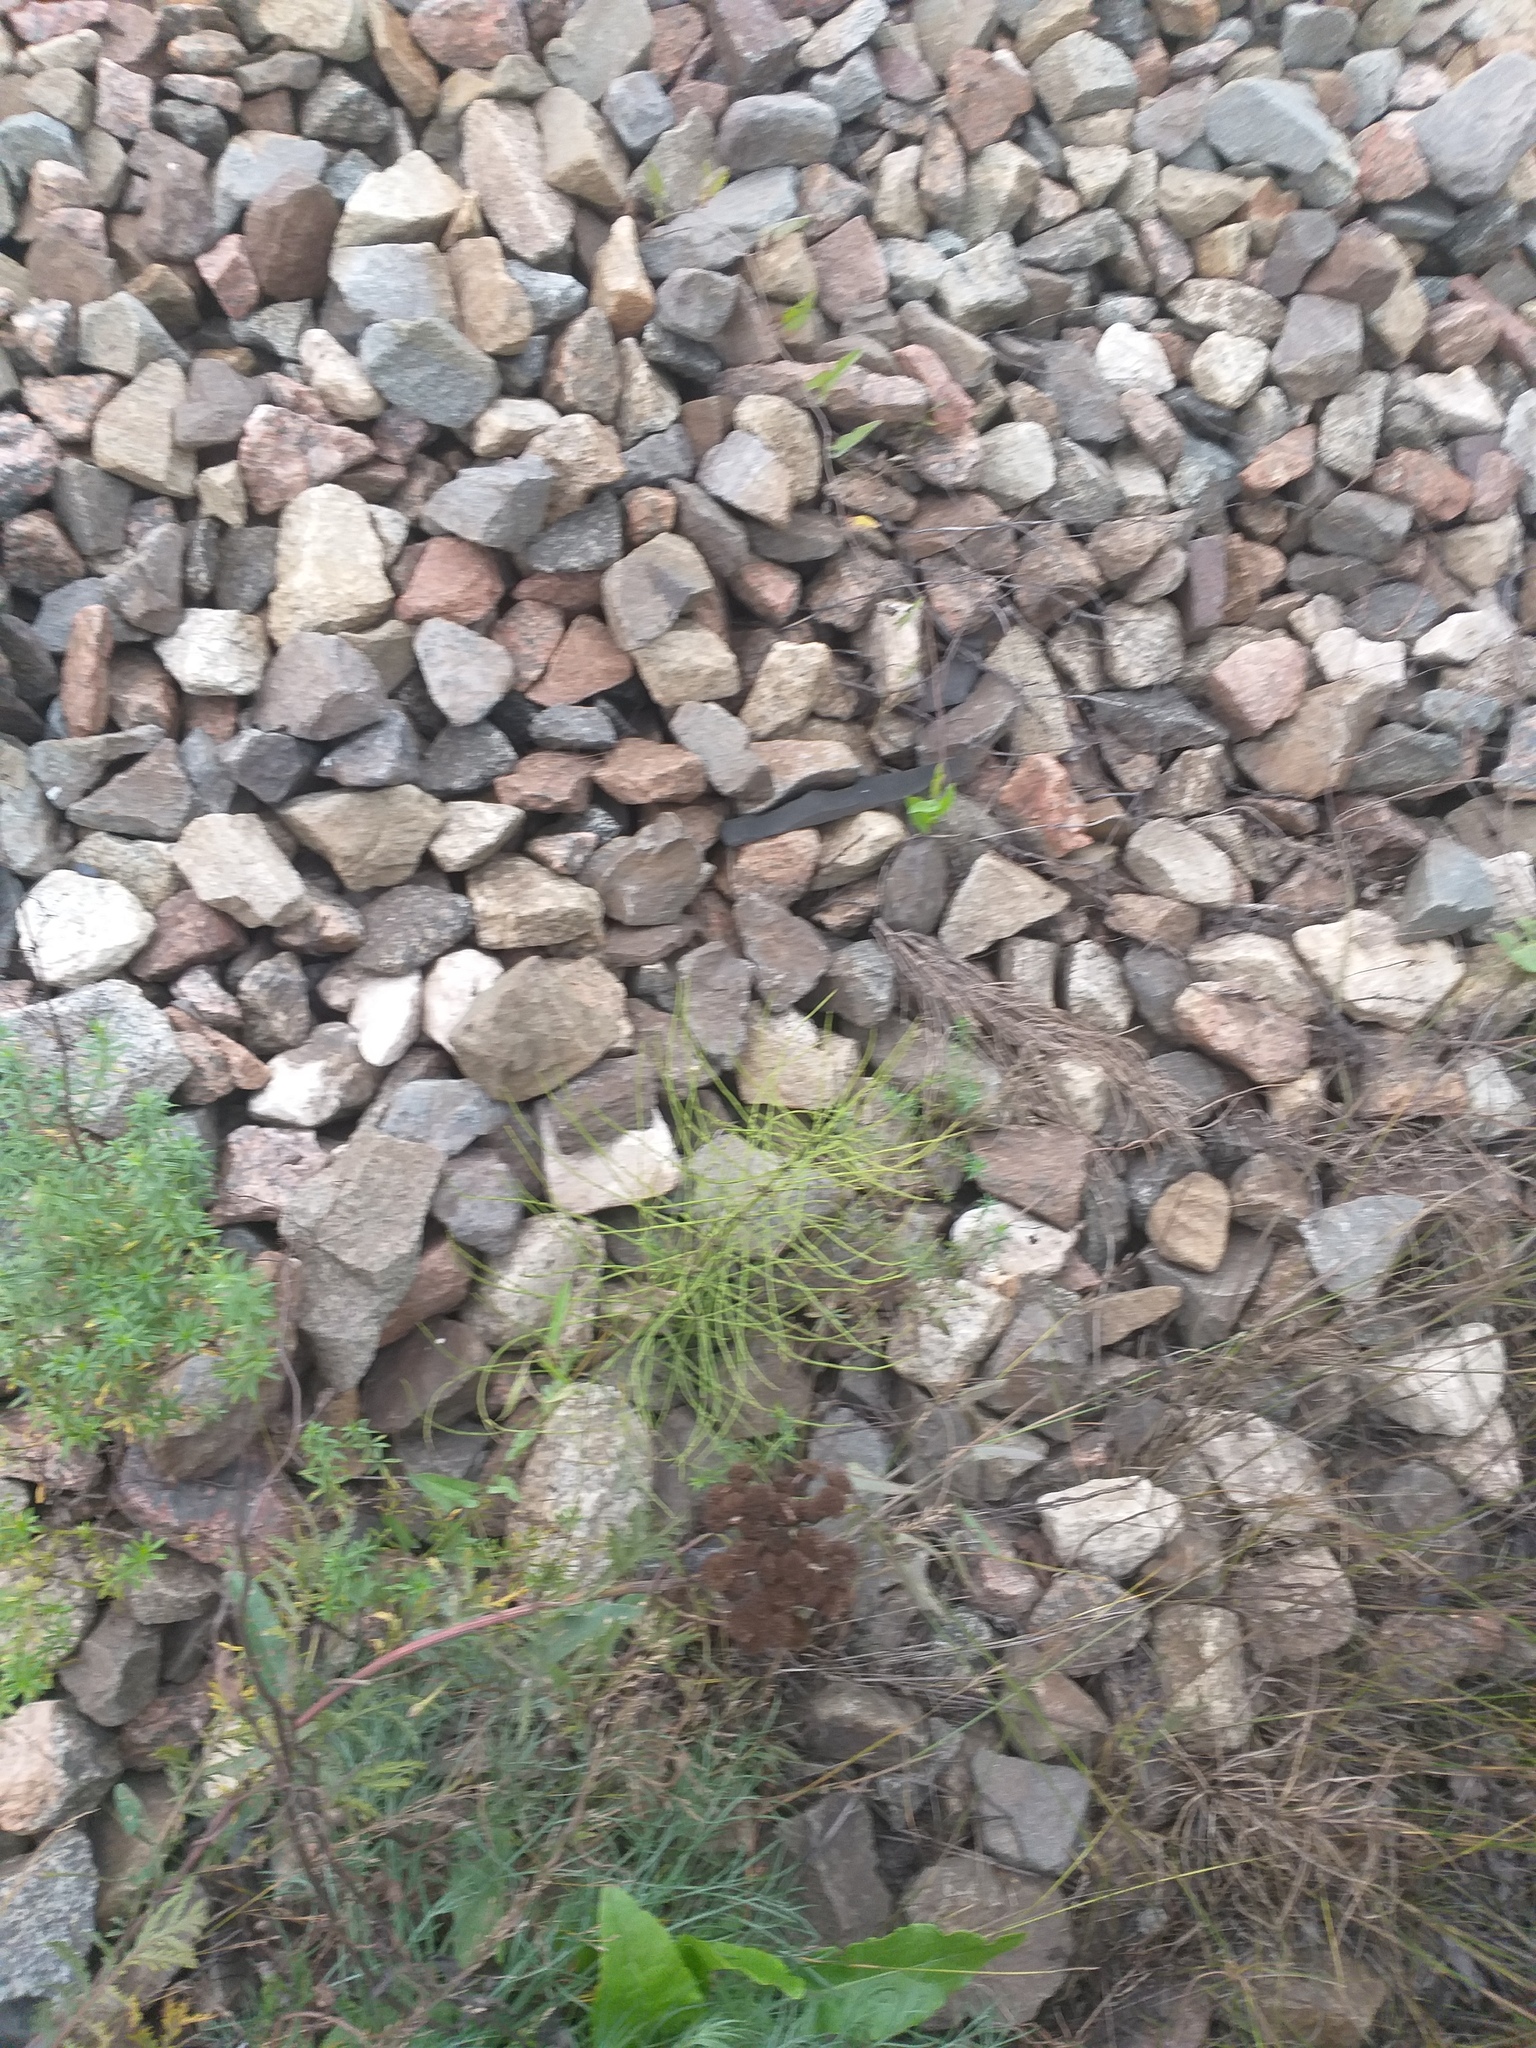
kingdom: Plantae
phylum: Tracheophyta
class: Polypodiopsida
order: Equisetales
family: Equisetaceae
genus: Equisetum
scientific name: Equisetum arvense
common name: Field horsetail
